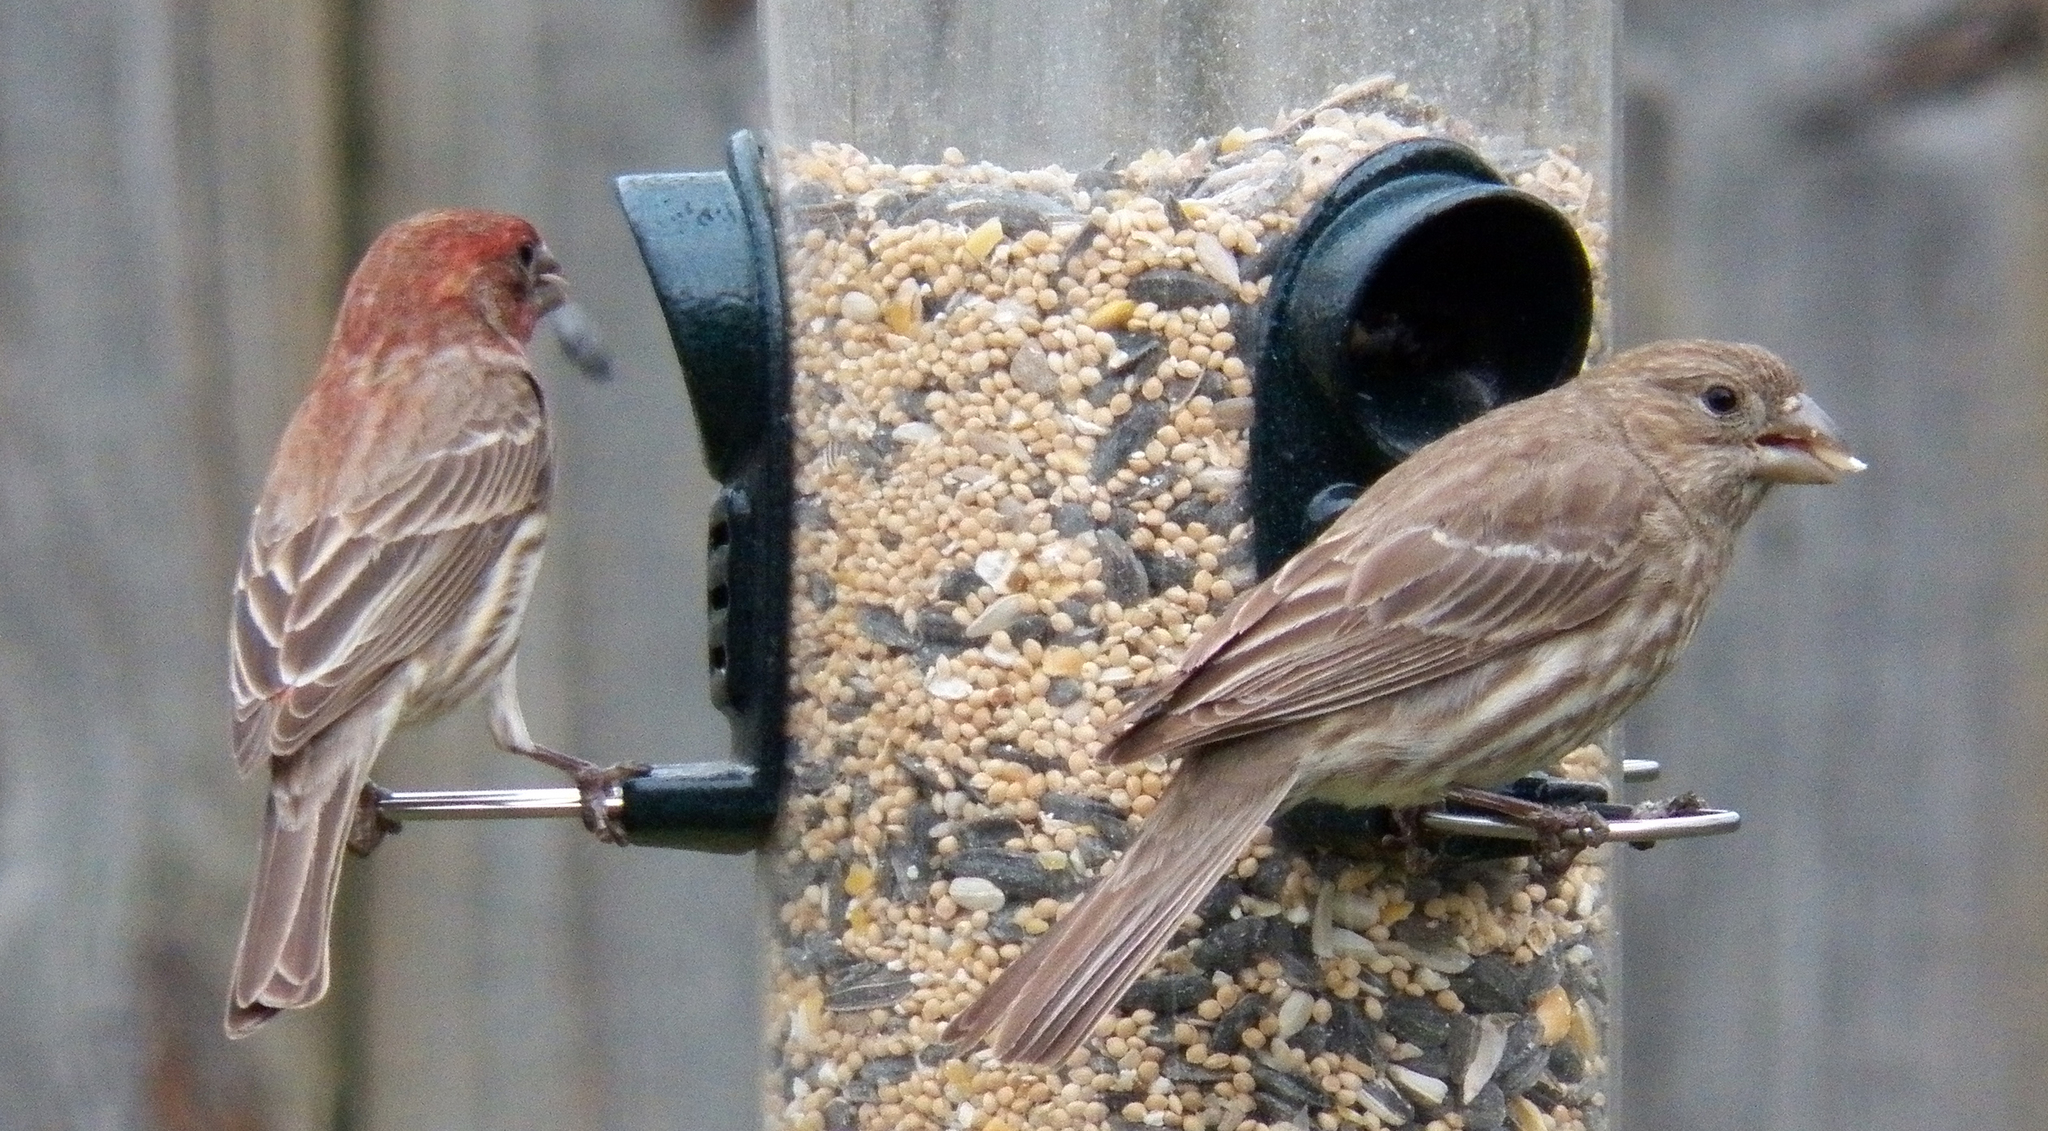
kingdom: Animalia
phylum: Chordata
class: Aves
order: Passeriformes
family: Fringillidae
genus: Haemorhous
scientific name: Haemorhous mexicanus
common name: House finch
